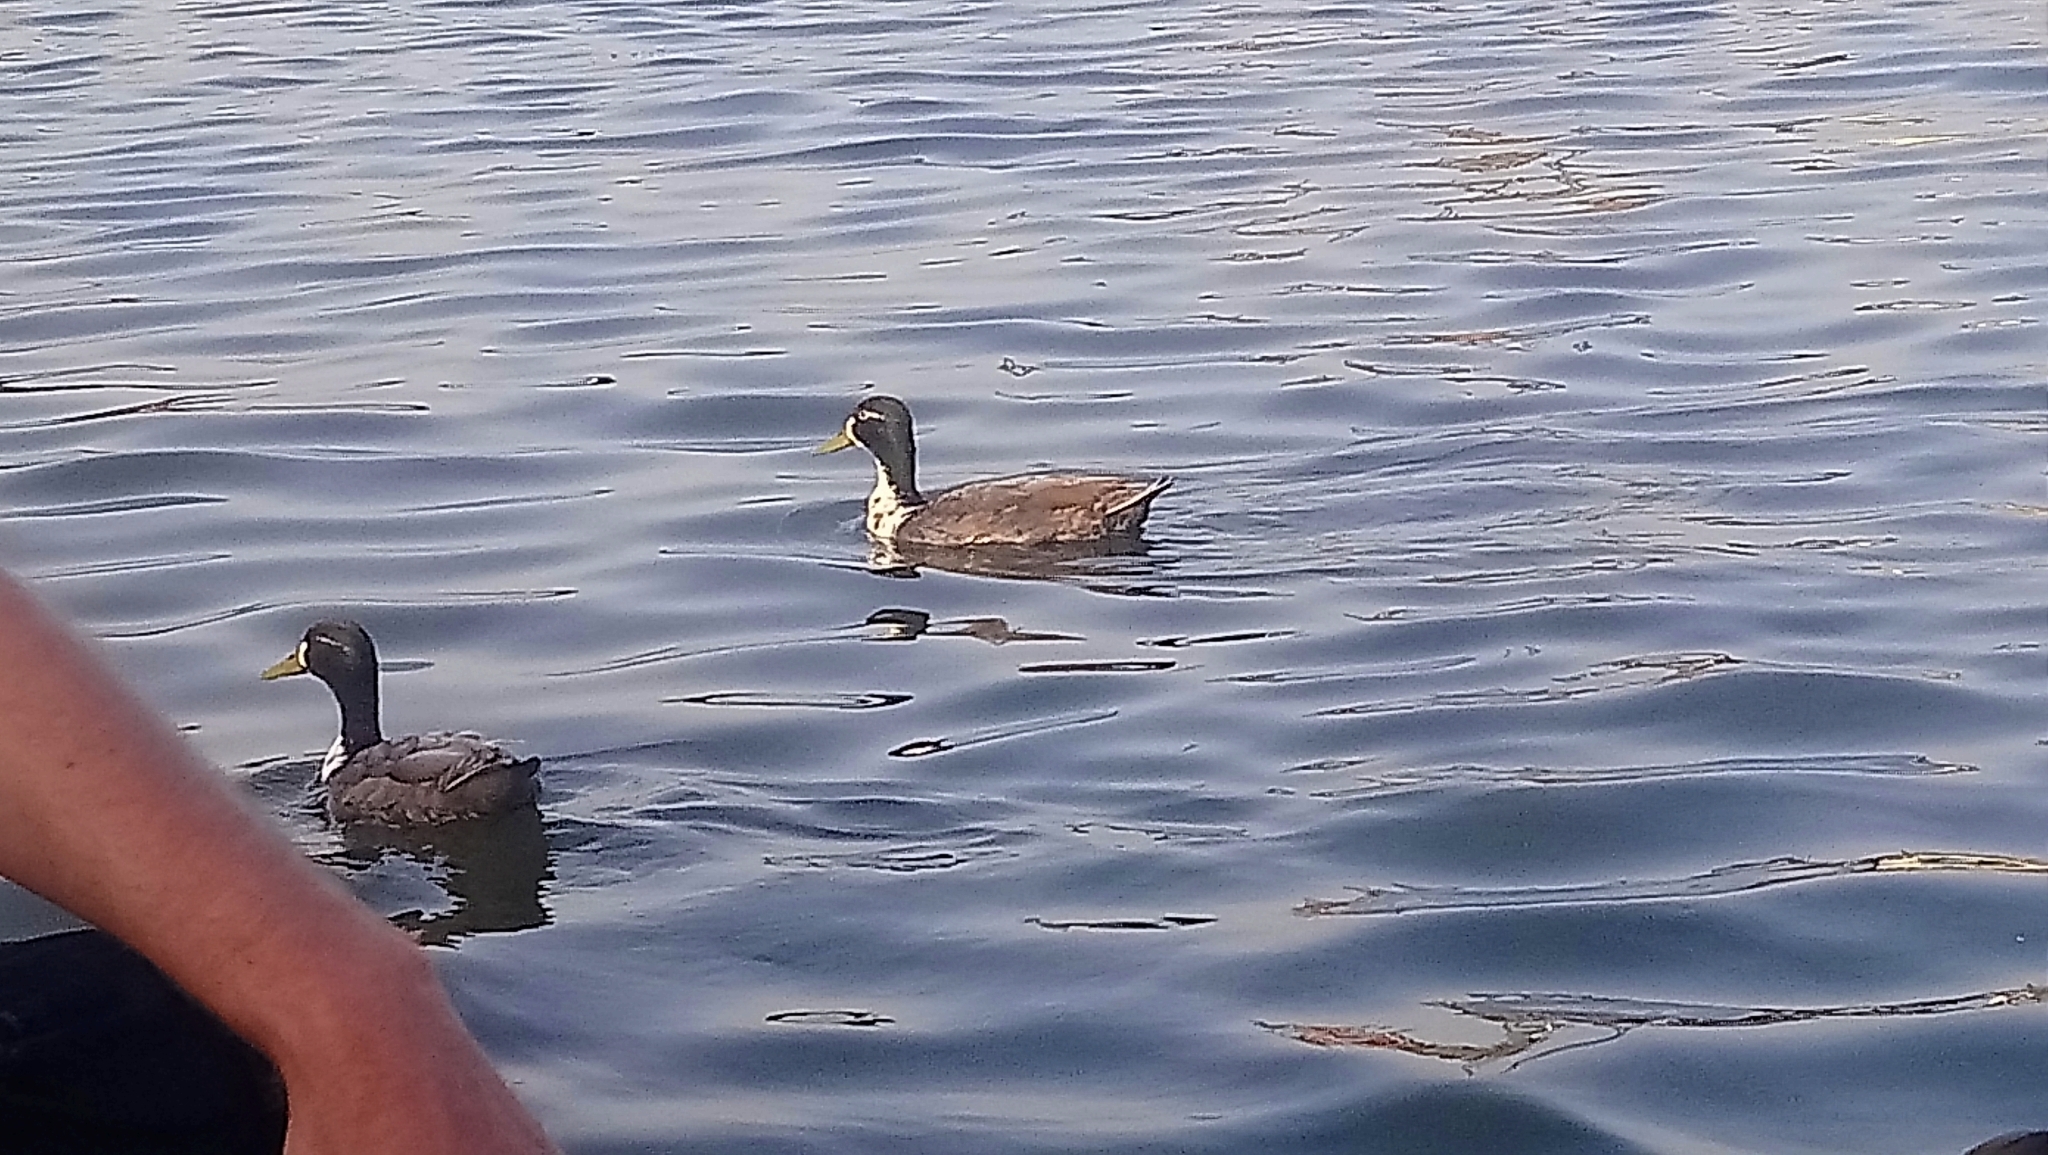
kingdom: Animalia
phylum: Chordata
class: Aves
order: Anseriformes
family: Anatidae
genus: Anas
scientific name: Anas platyrhynchos
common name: Mallard
